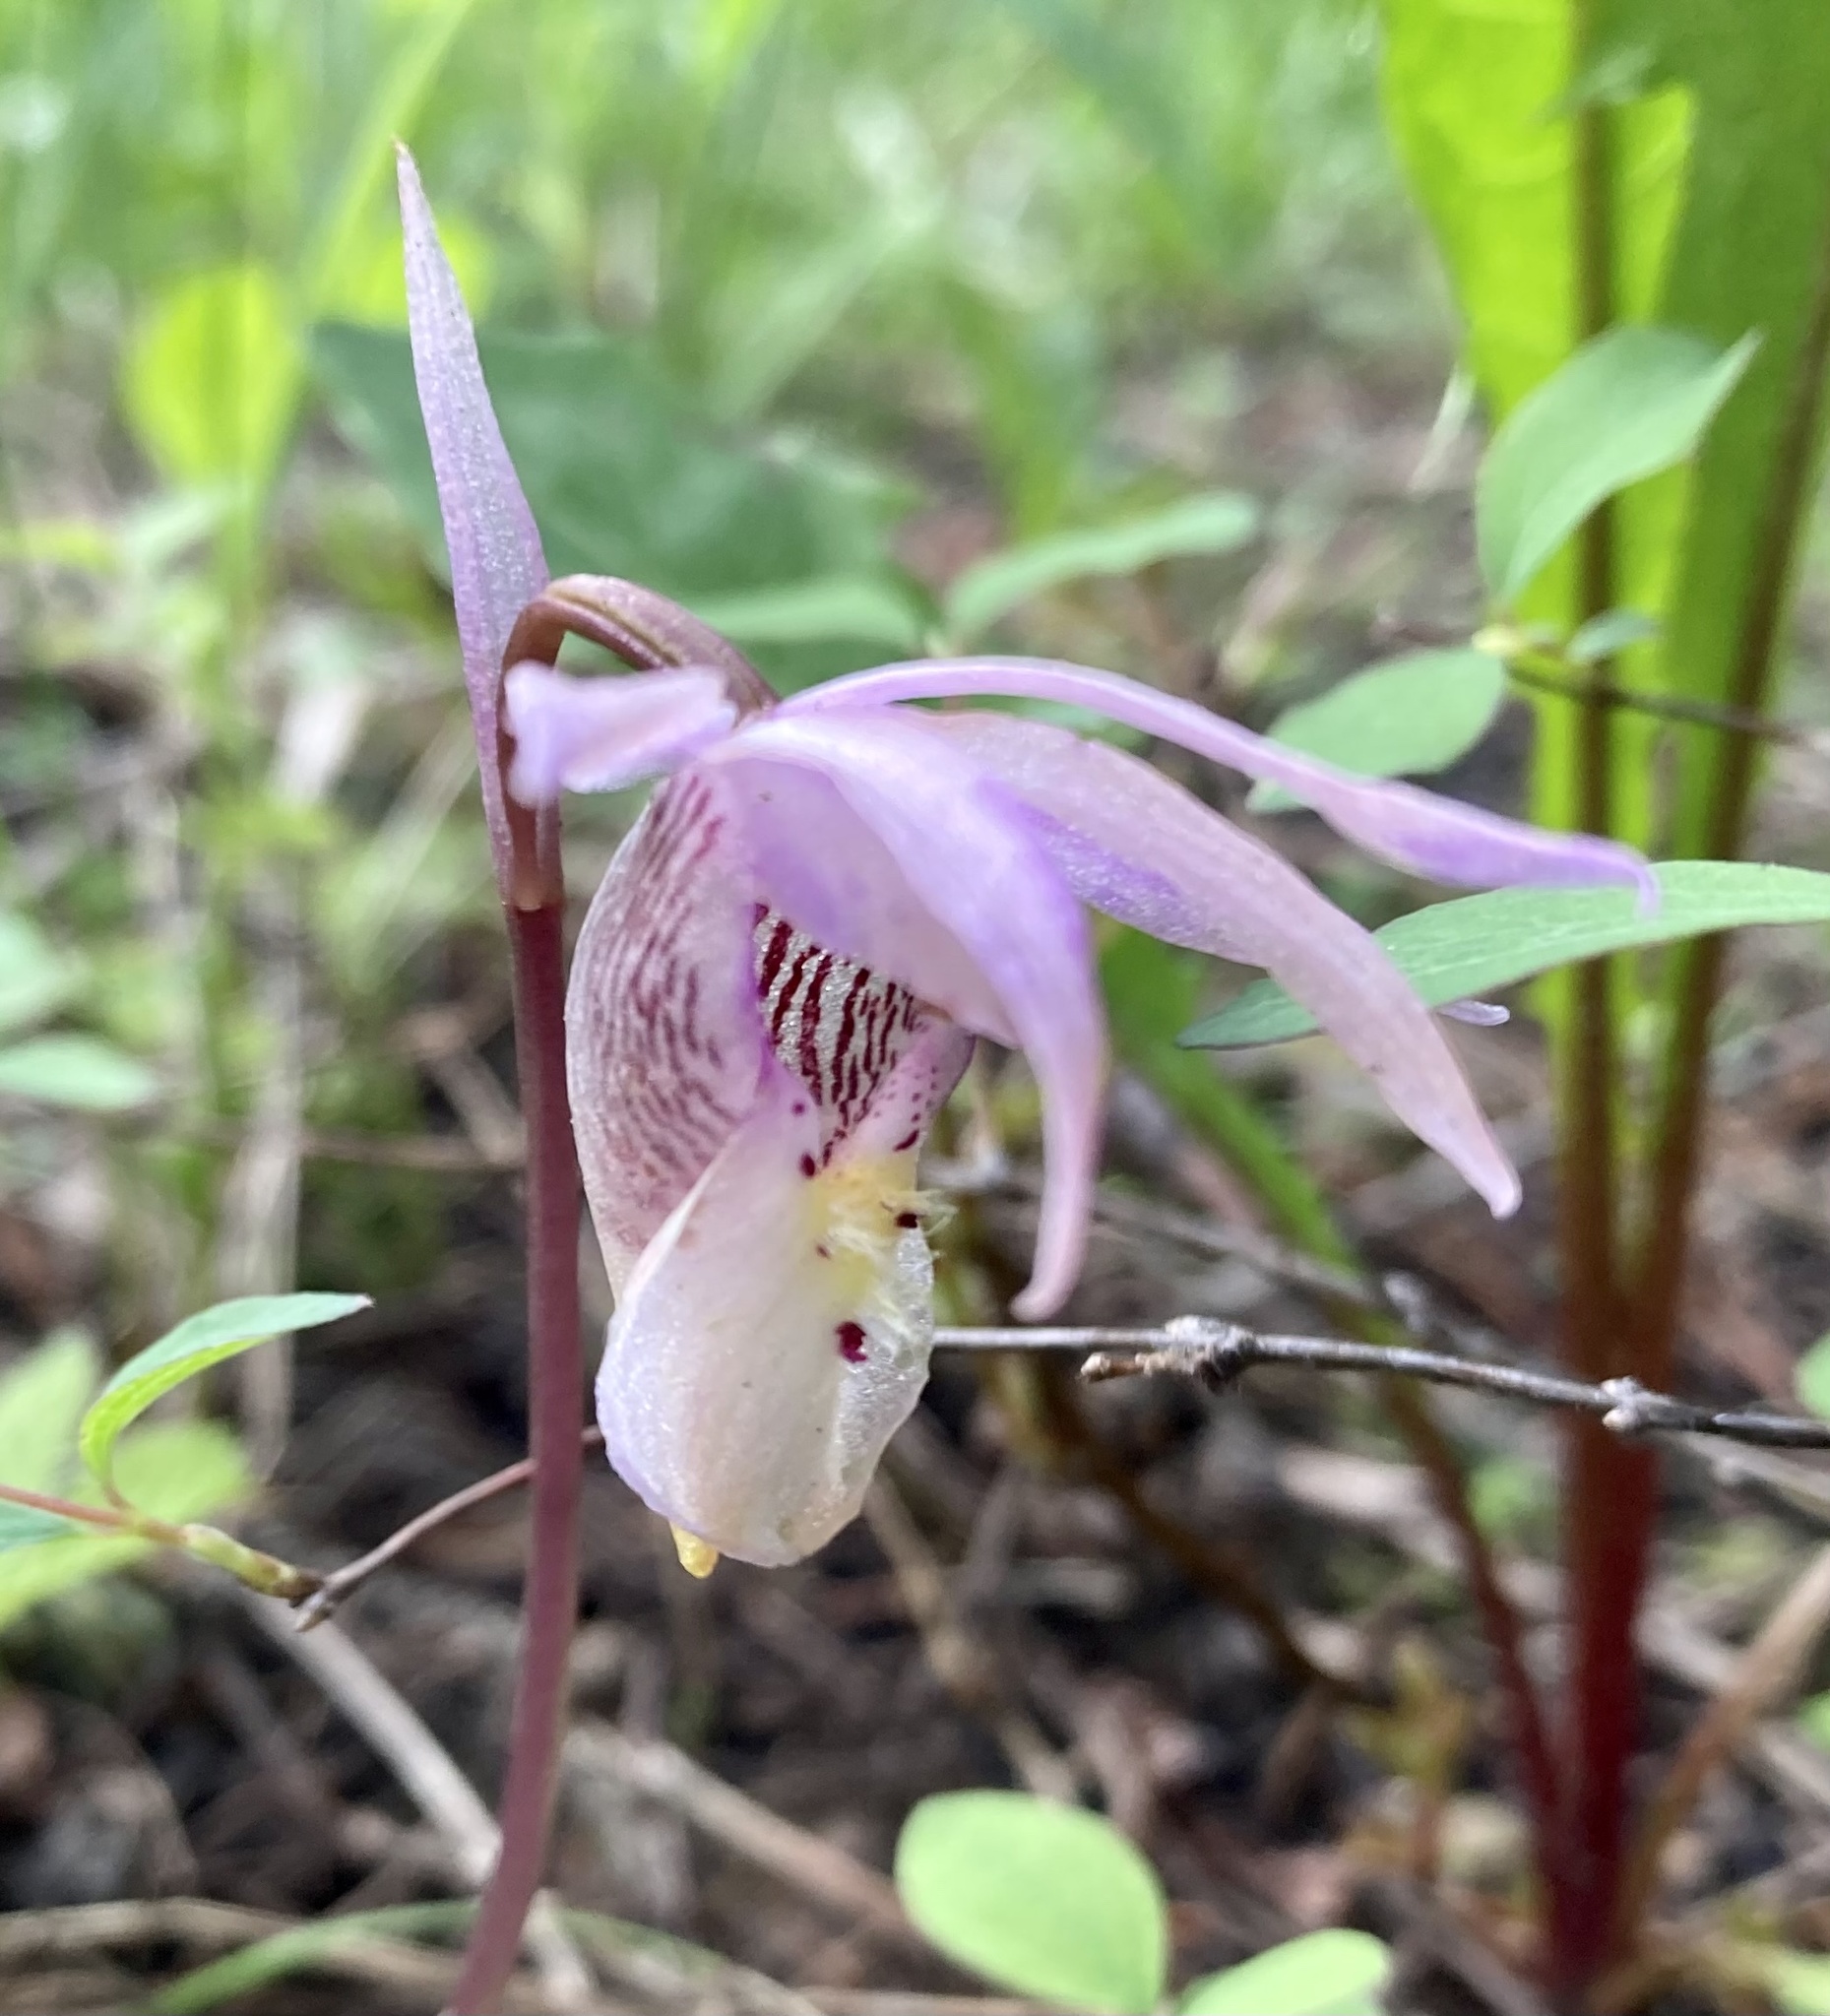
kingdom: Plantae
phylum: Tracheophyta
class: Liliopsida
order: Asparagales
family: Orchidaceae
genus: Calypso
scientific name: Calypso bulbosa
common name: Calypso
